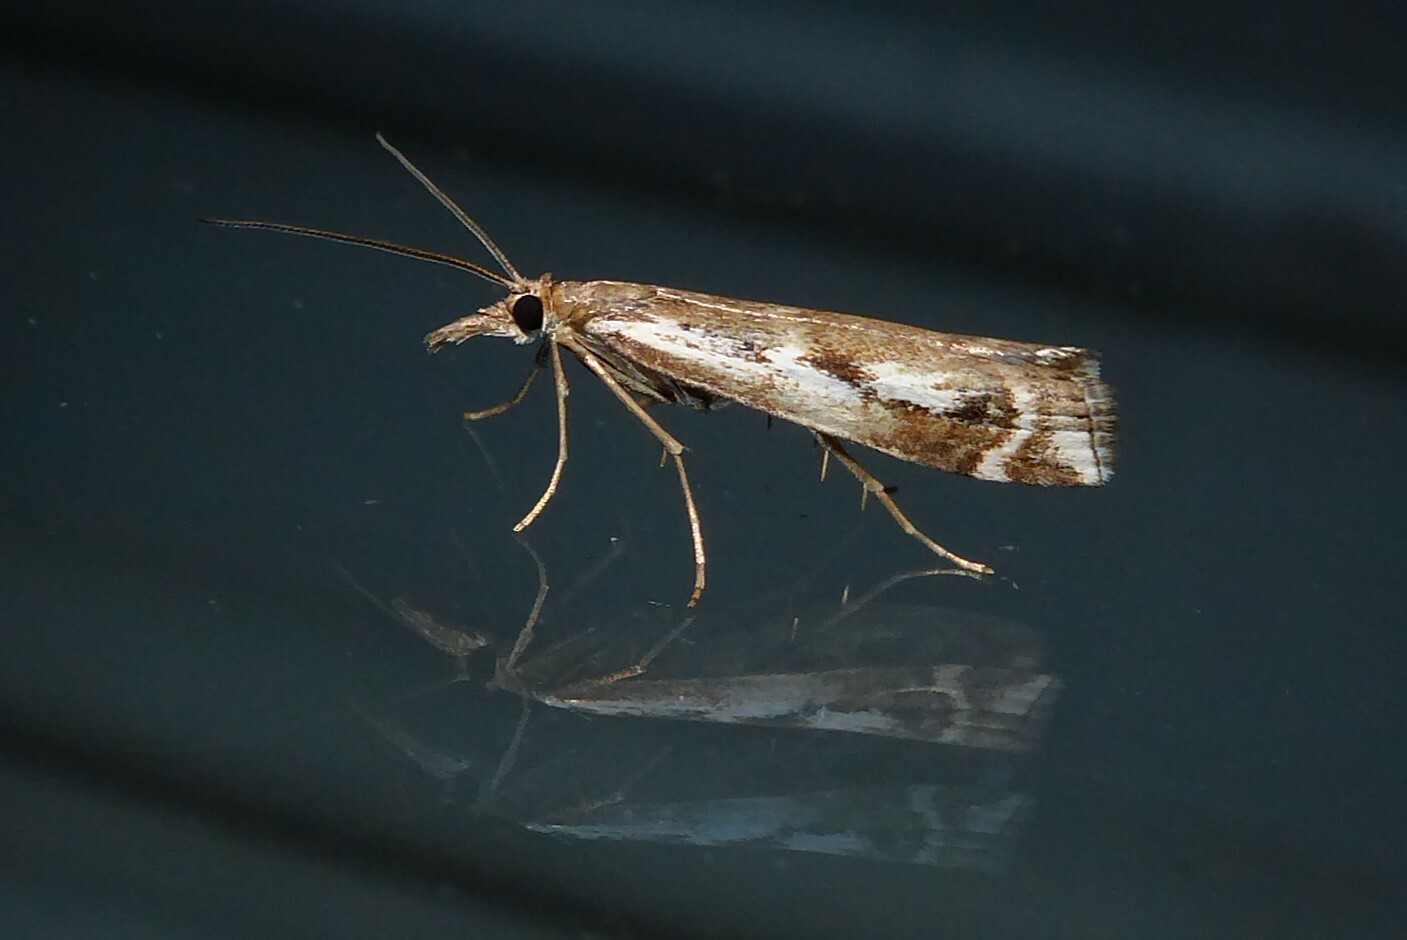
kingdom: Animalia
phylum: Arthropoda
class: Insecta
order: Lepidoptera
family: Crambidae
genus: Orocrambus
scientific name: Orocrambus vulgaris
